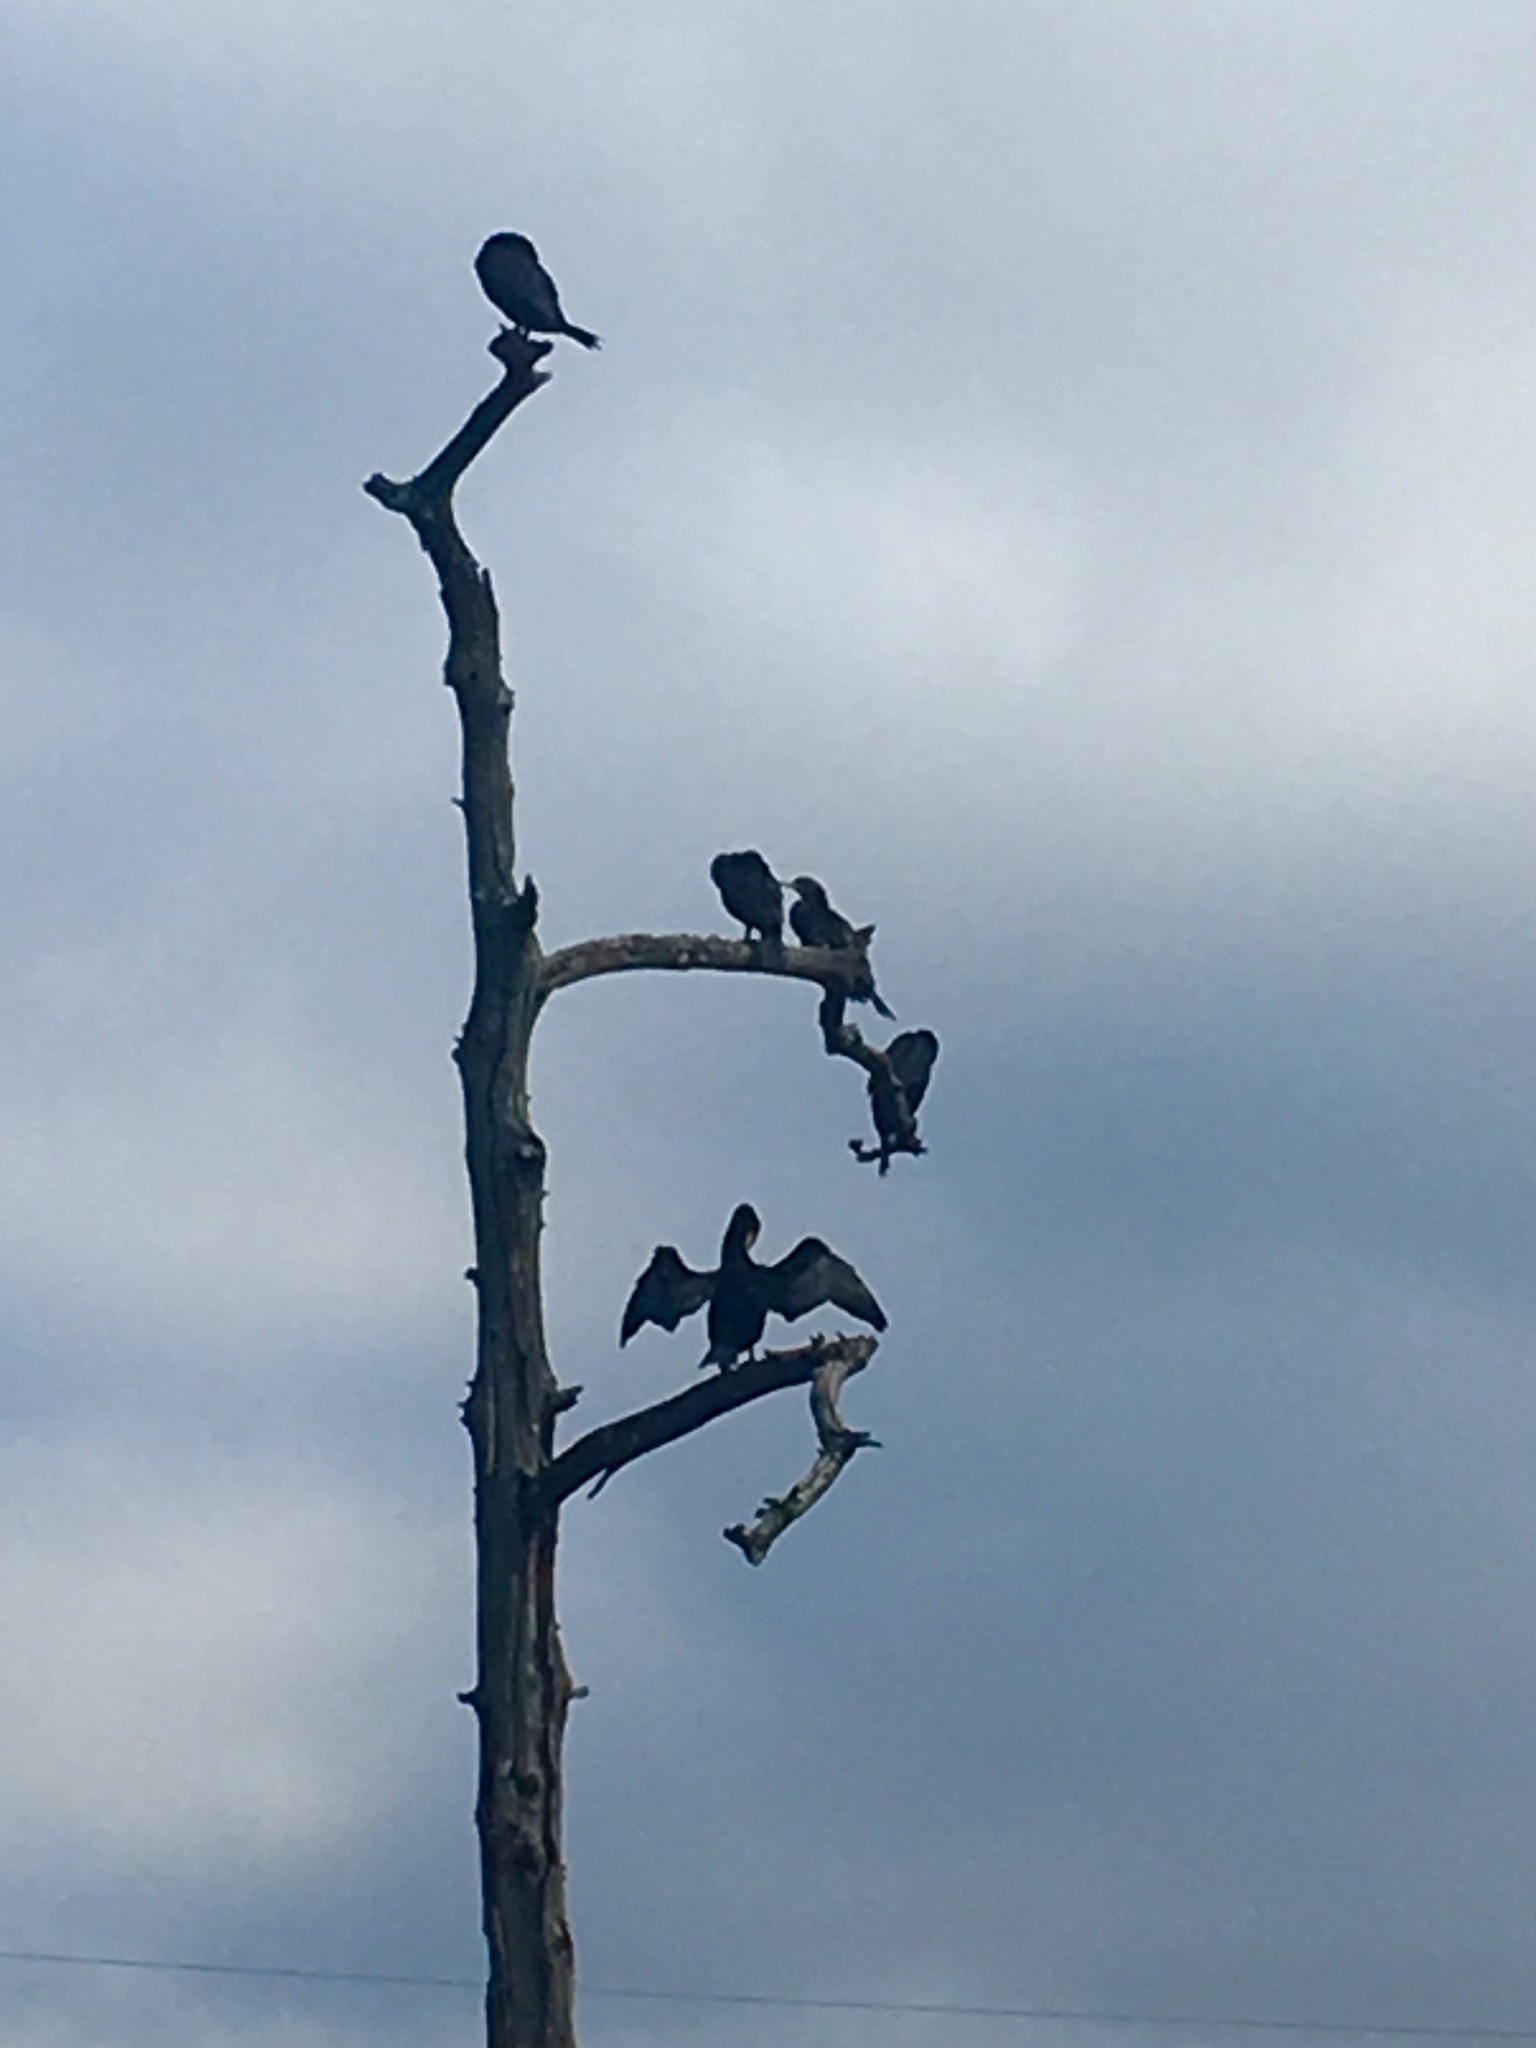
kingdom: Animalia
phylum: Chordata
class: Aves
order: Suliformes
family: Phalacrocoracidae
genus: Phalacrocorax
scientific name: Phalacrocorax auritus
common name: Double-crested cormorant
